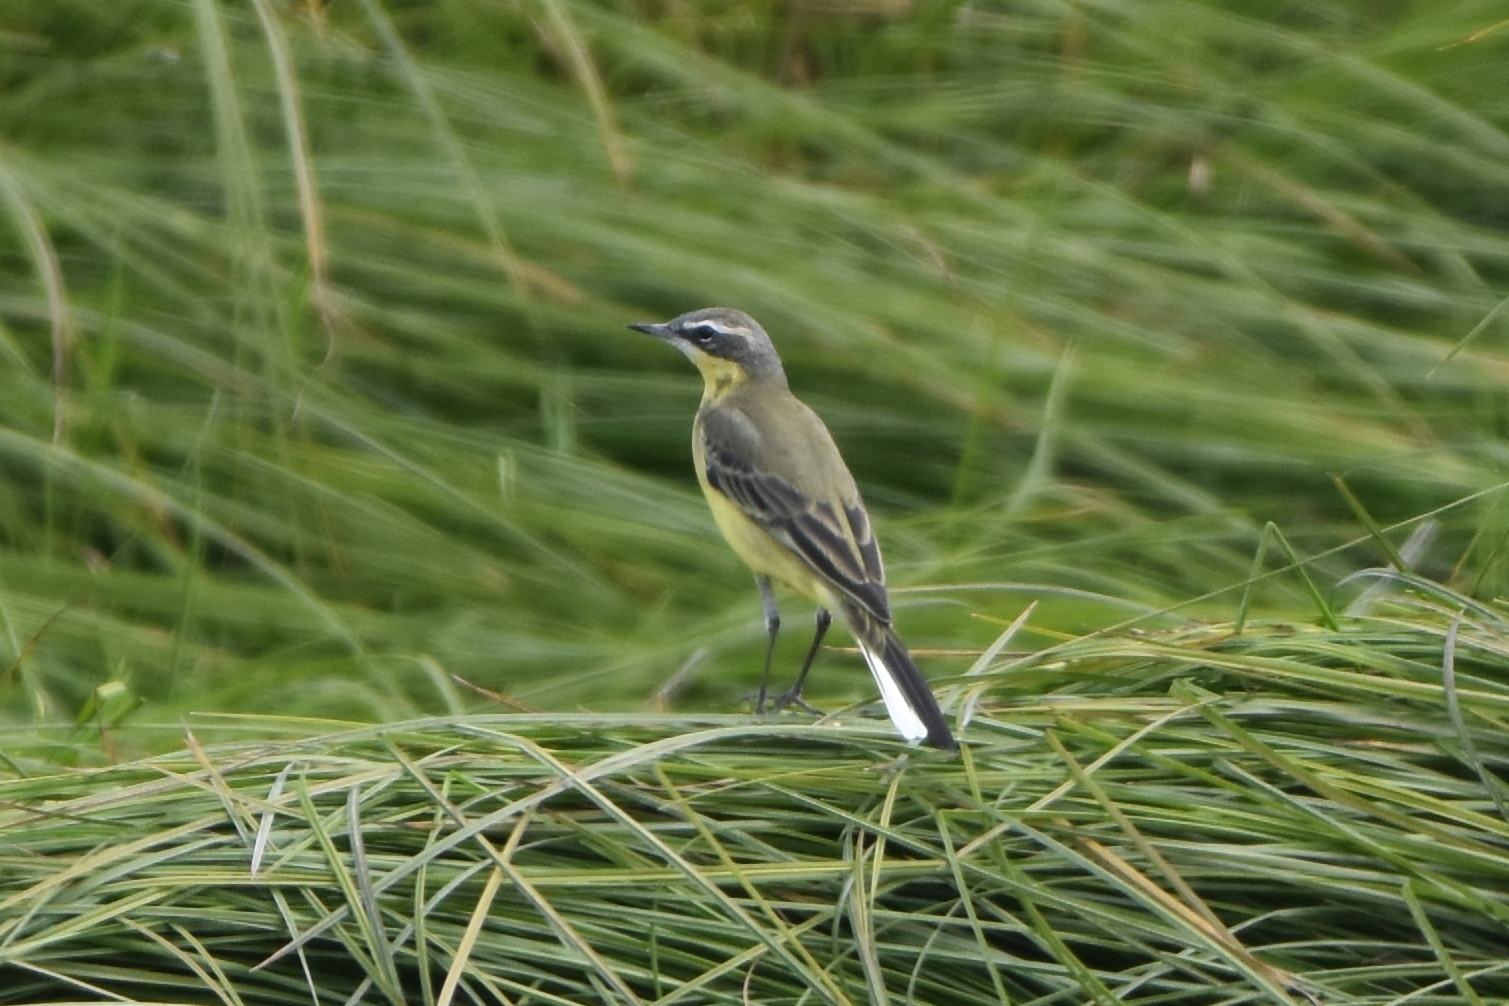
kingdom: Animalia
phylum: Chordata
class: Aves
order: Passeriformes
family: Motacillidae
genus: Motacilla
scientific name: Motacilla tschutschensis
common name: Eastern yellow wagtail
